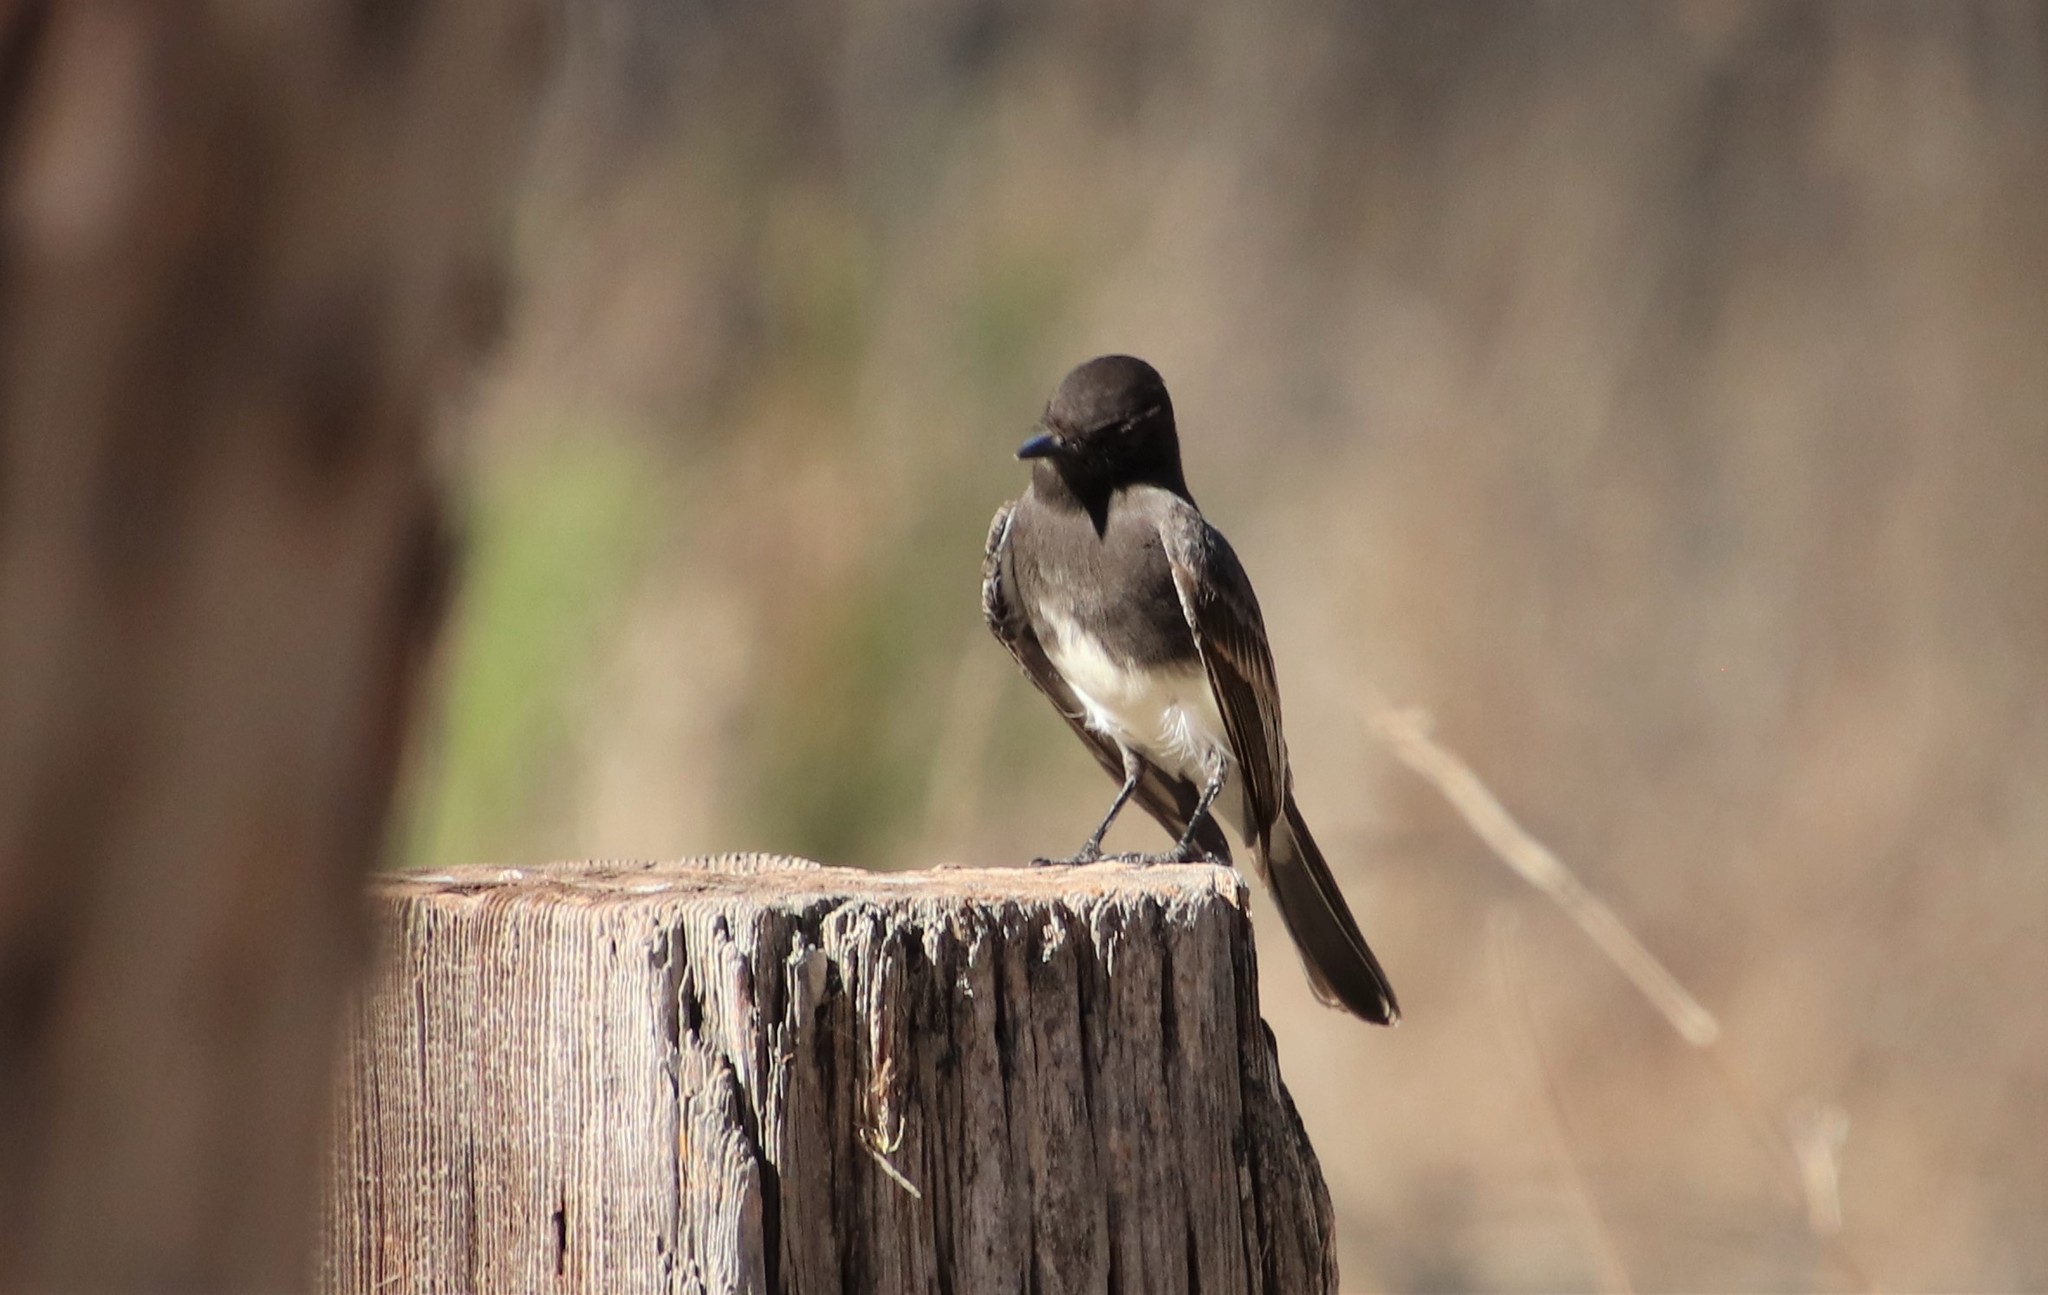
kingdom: Animalia
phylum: Chordata
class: Aves
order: Passeriformes
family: Tyrannidae
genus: Sayornis
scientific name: Sayornis nigricans
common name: Black phoebe
